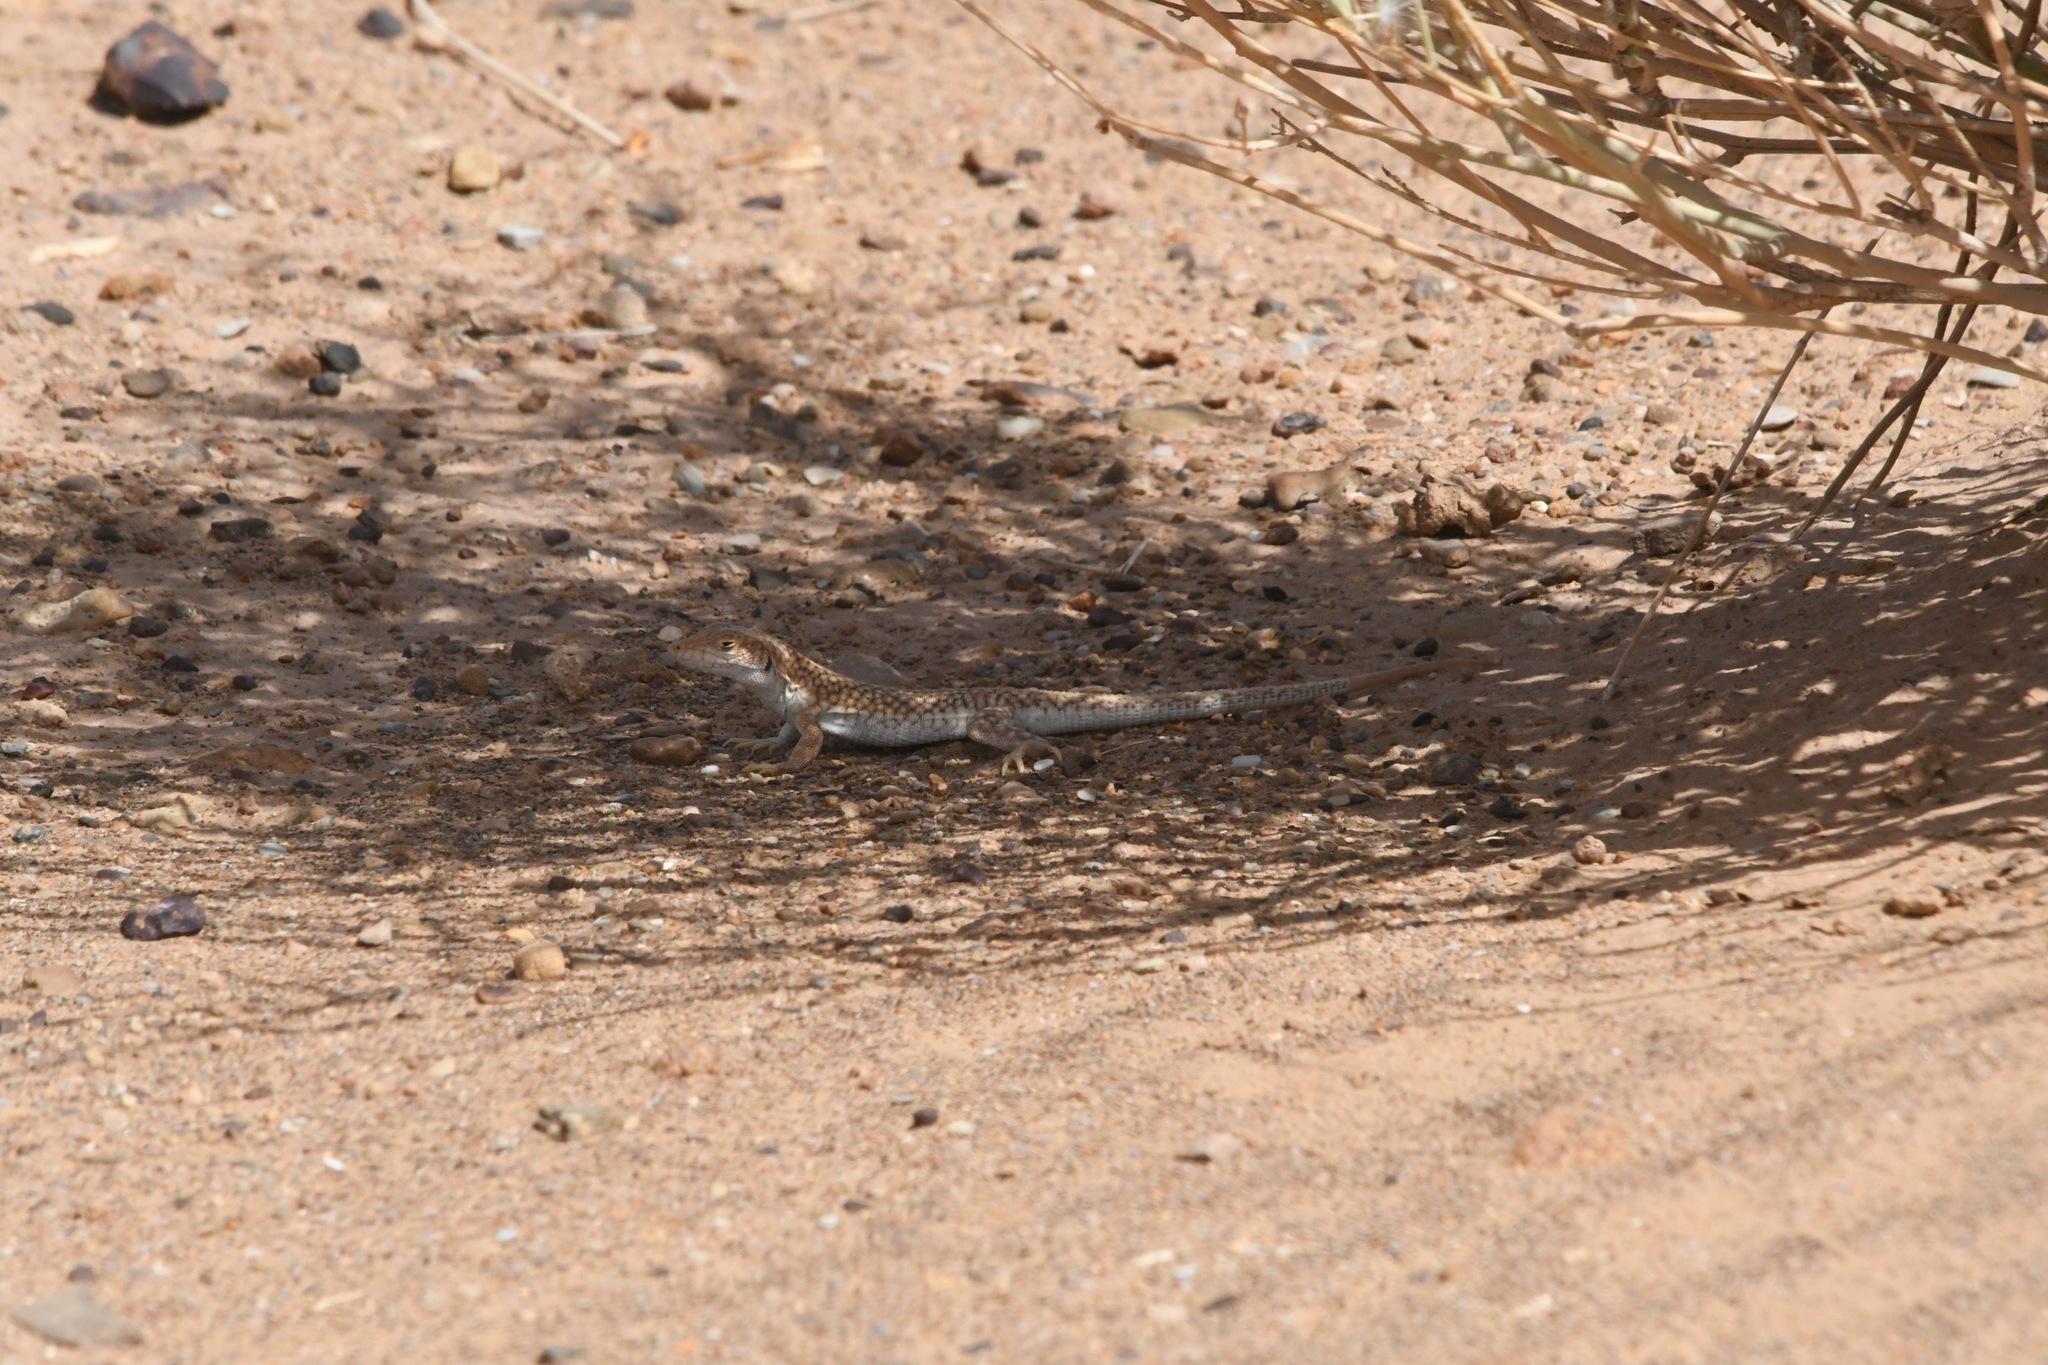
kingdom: Animalia
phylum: Chordata
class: Squamata
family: Lacertidae
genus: Acanthodactylus
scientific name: Acanthodactylus dumerilii
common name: Duméril's fringe-fingered lizard
